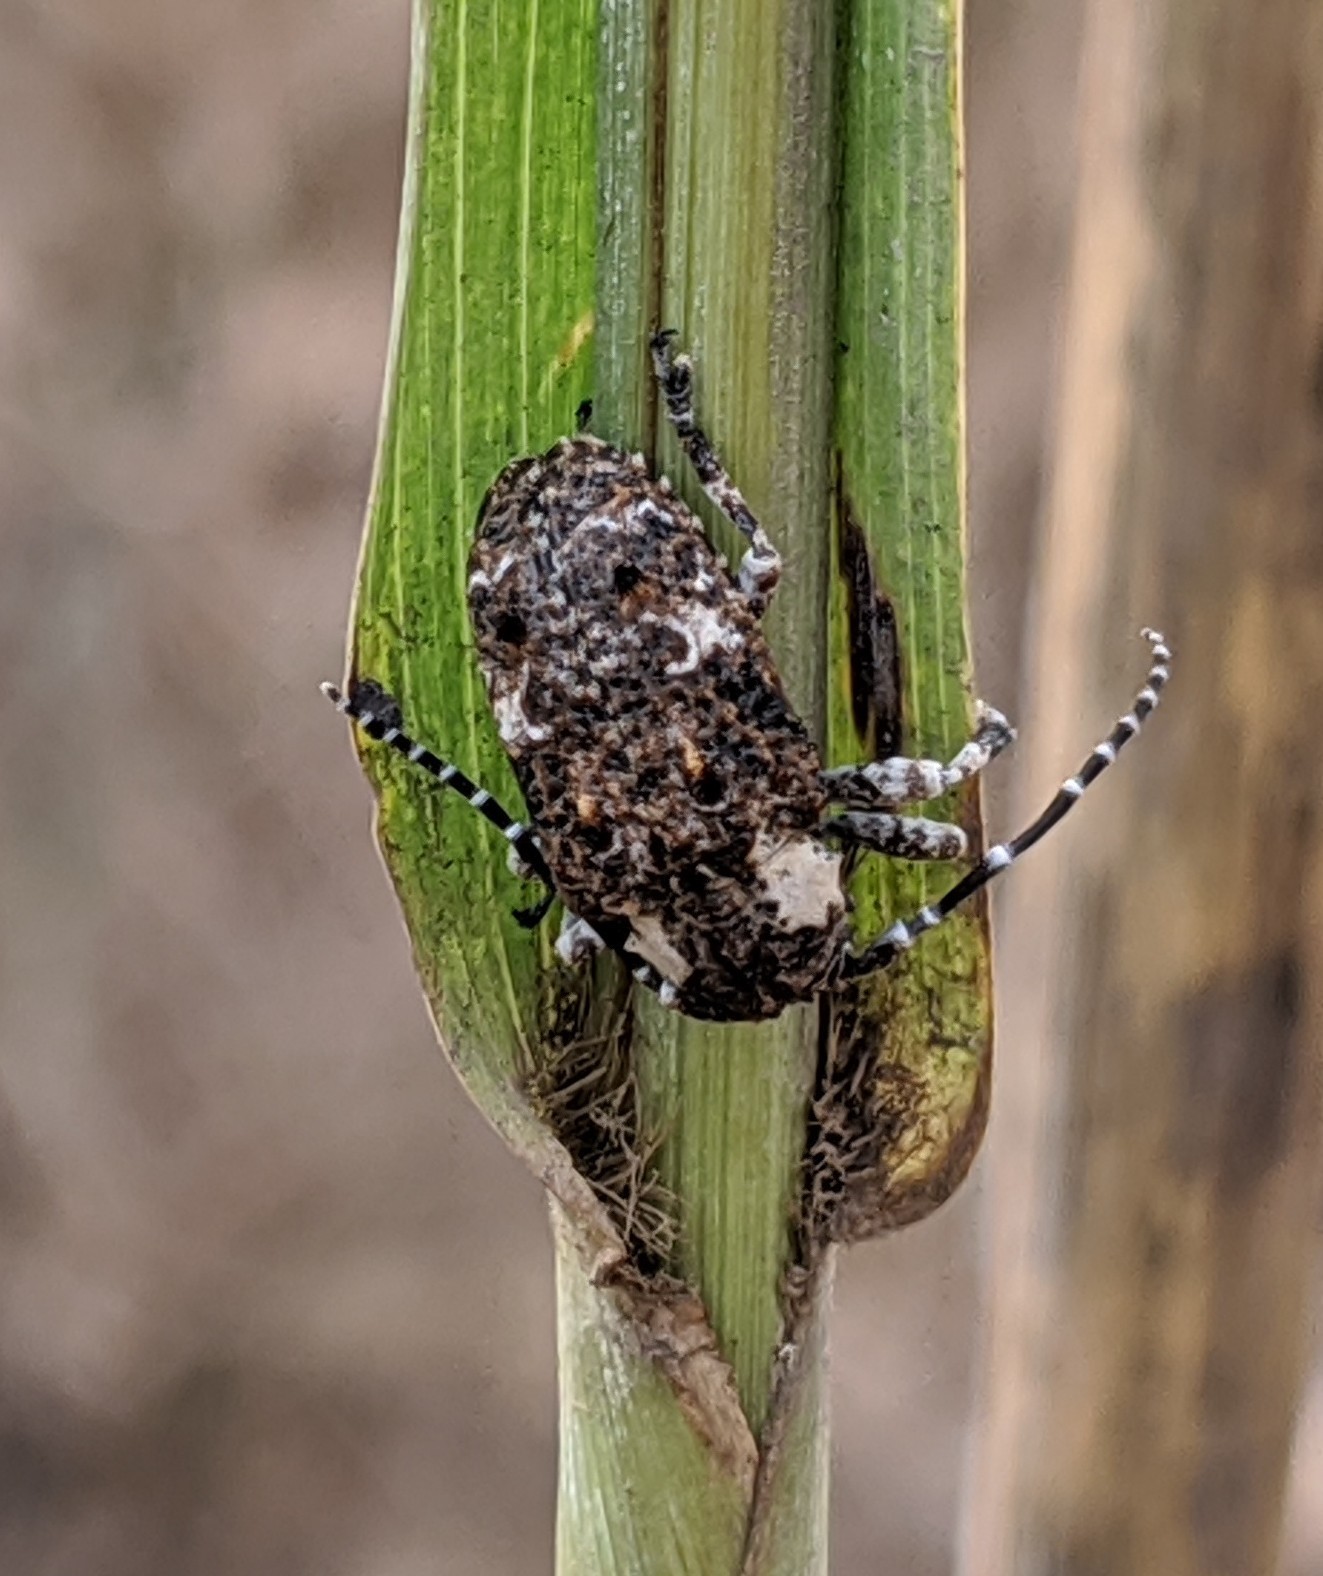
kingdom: Animalia
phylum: Arthropoda
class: Insecta
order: Coleoptera
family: Cerambycidae
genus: Corus
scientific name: Corus collaris
